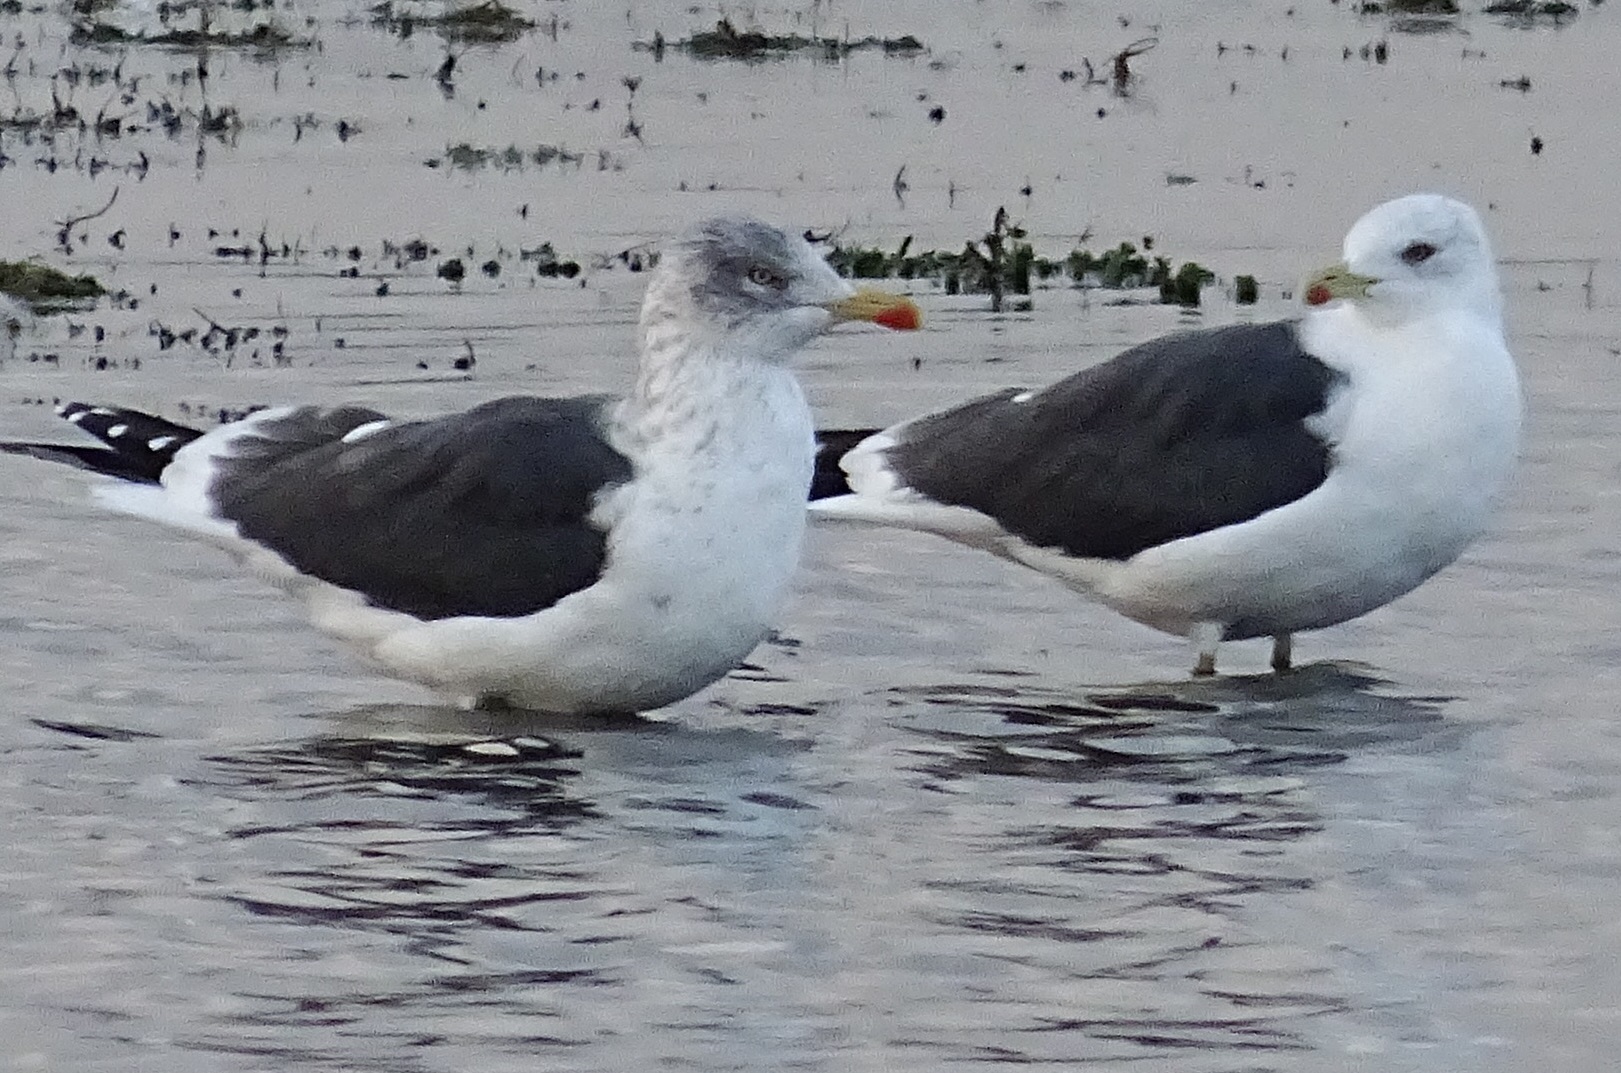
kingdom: Animalia
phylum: Chordata
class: Aves
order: Charadriiformes
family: Laridae
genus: Larus
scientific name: Larus fuscus
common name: Lesser black-backed gull
